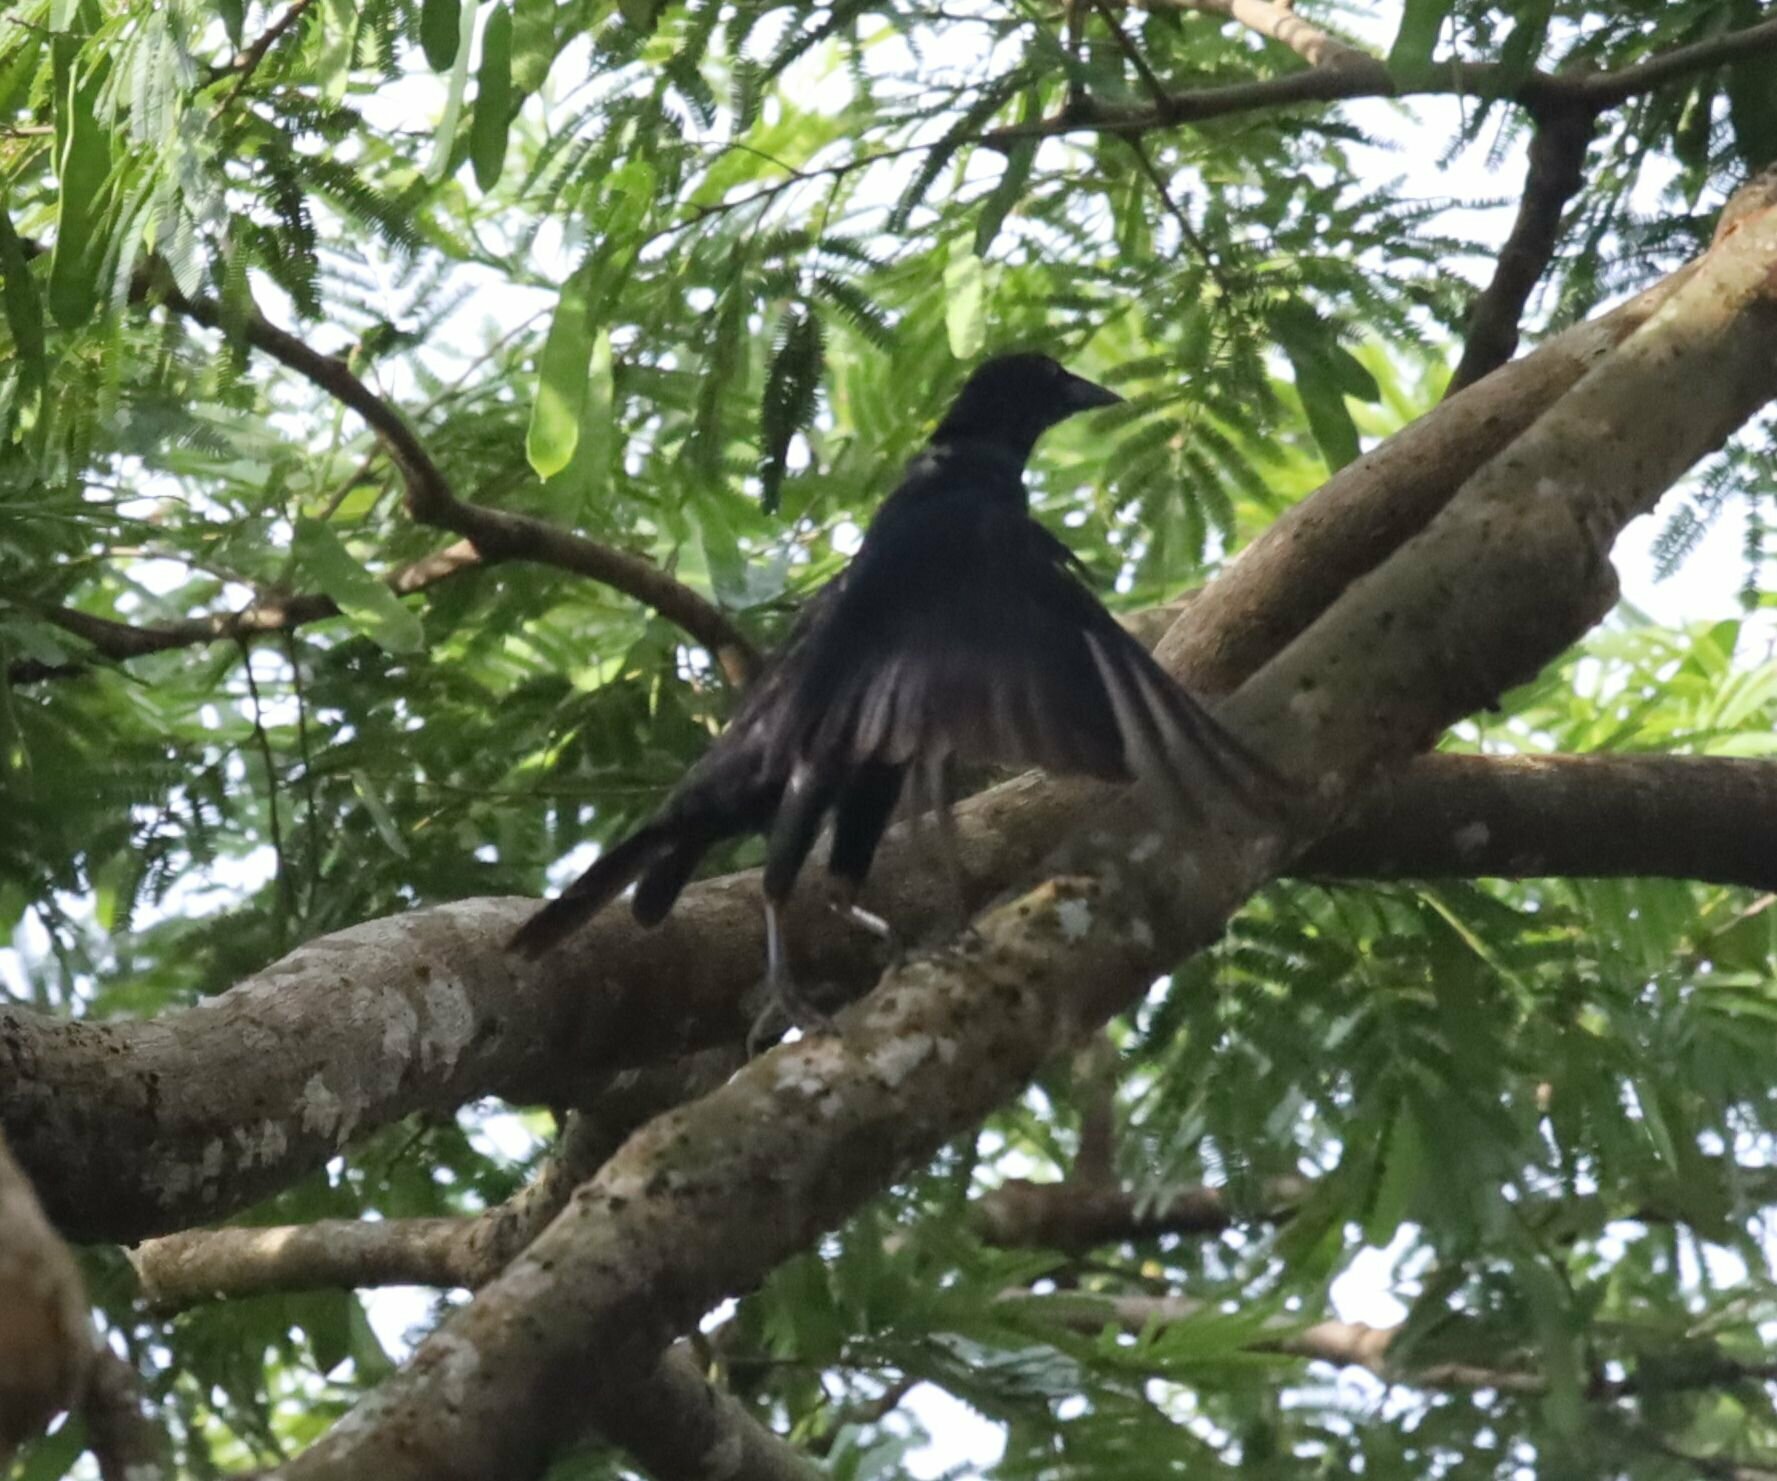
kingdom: Animalia
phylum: Chordata
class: Aves
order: Passeriformes
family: Icteridae
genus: Molothrus
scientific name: Molothrus oryzivorus
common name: Giant cowbird
